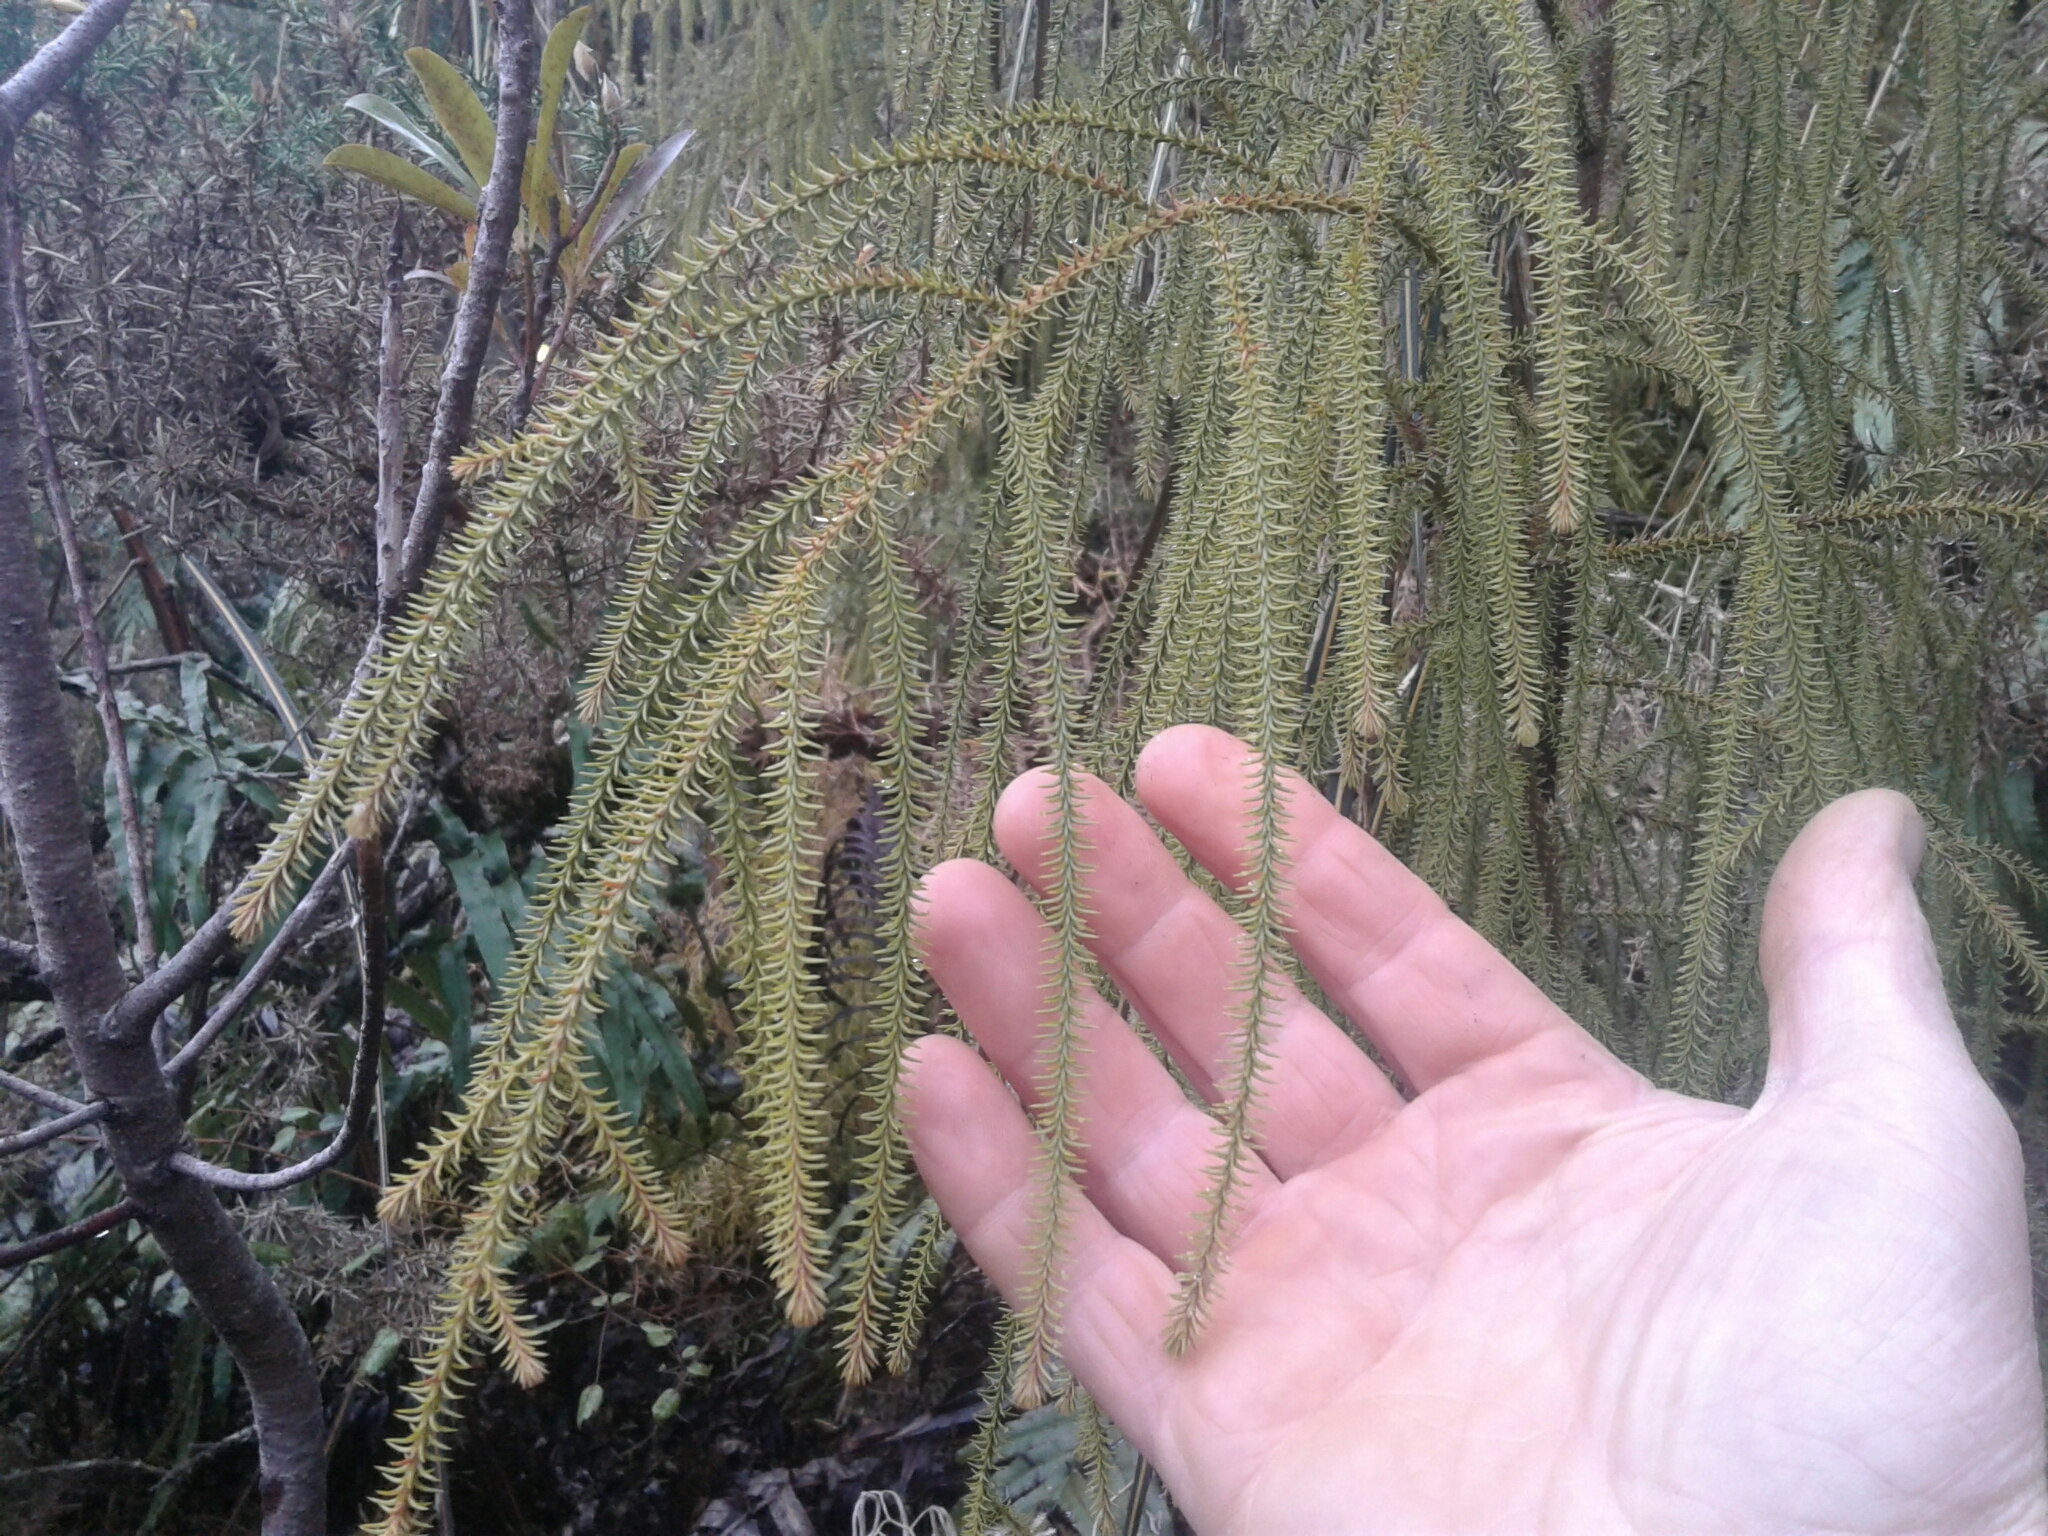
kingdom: Plantae
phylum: Tracheophyta
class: Pinopsida
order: Pinales
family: Podocarpaceae
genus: Dacrydium
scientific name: Dacrydium cupressinum
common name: Red pine
